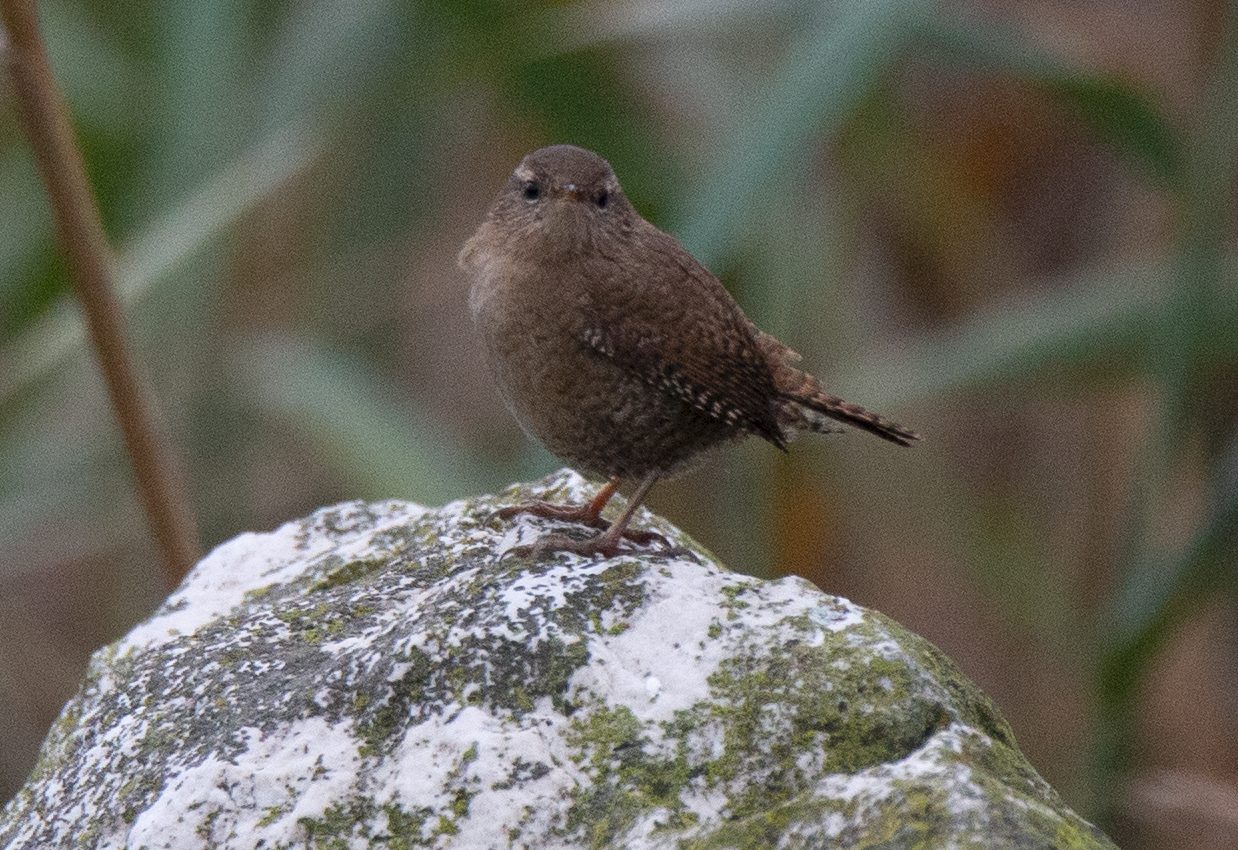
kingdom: Animalia
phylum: Chordata
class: Aves
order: Passeriformes
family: Troglodytidae
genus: Troglodytes
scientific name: Troglodytes troglodytes
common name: Eurasian wren
